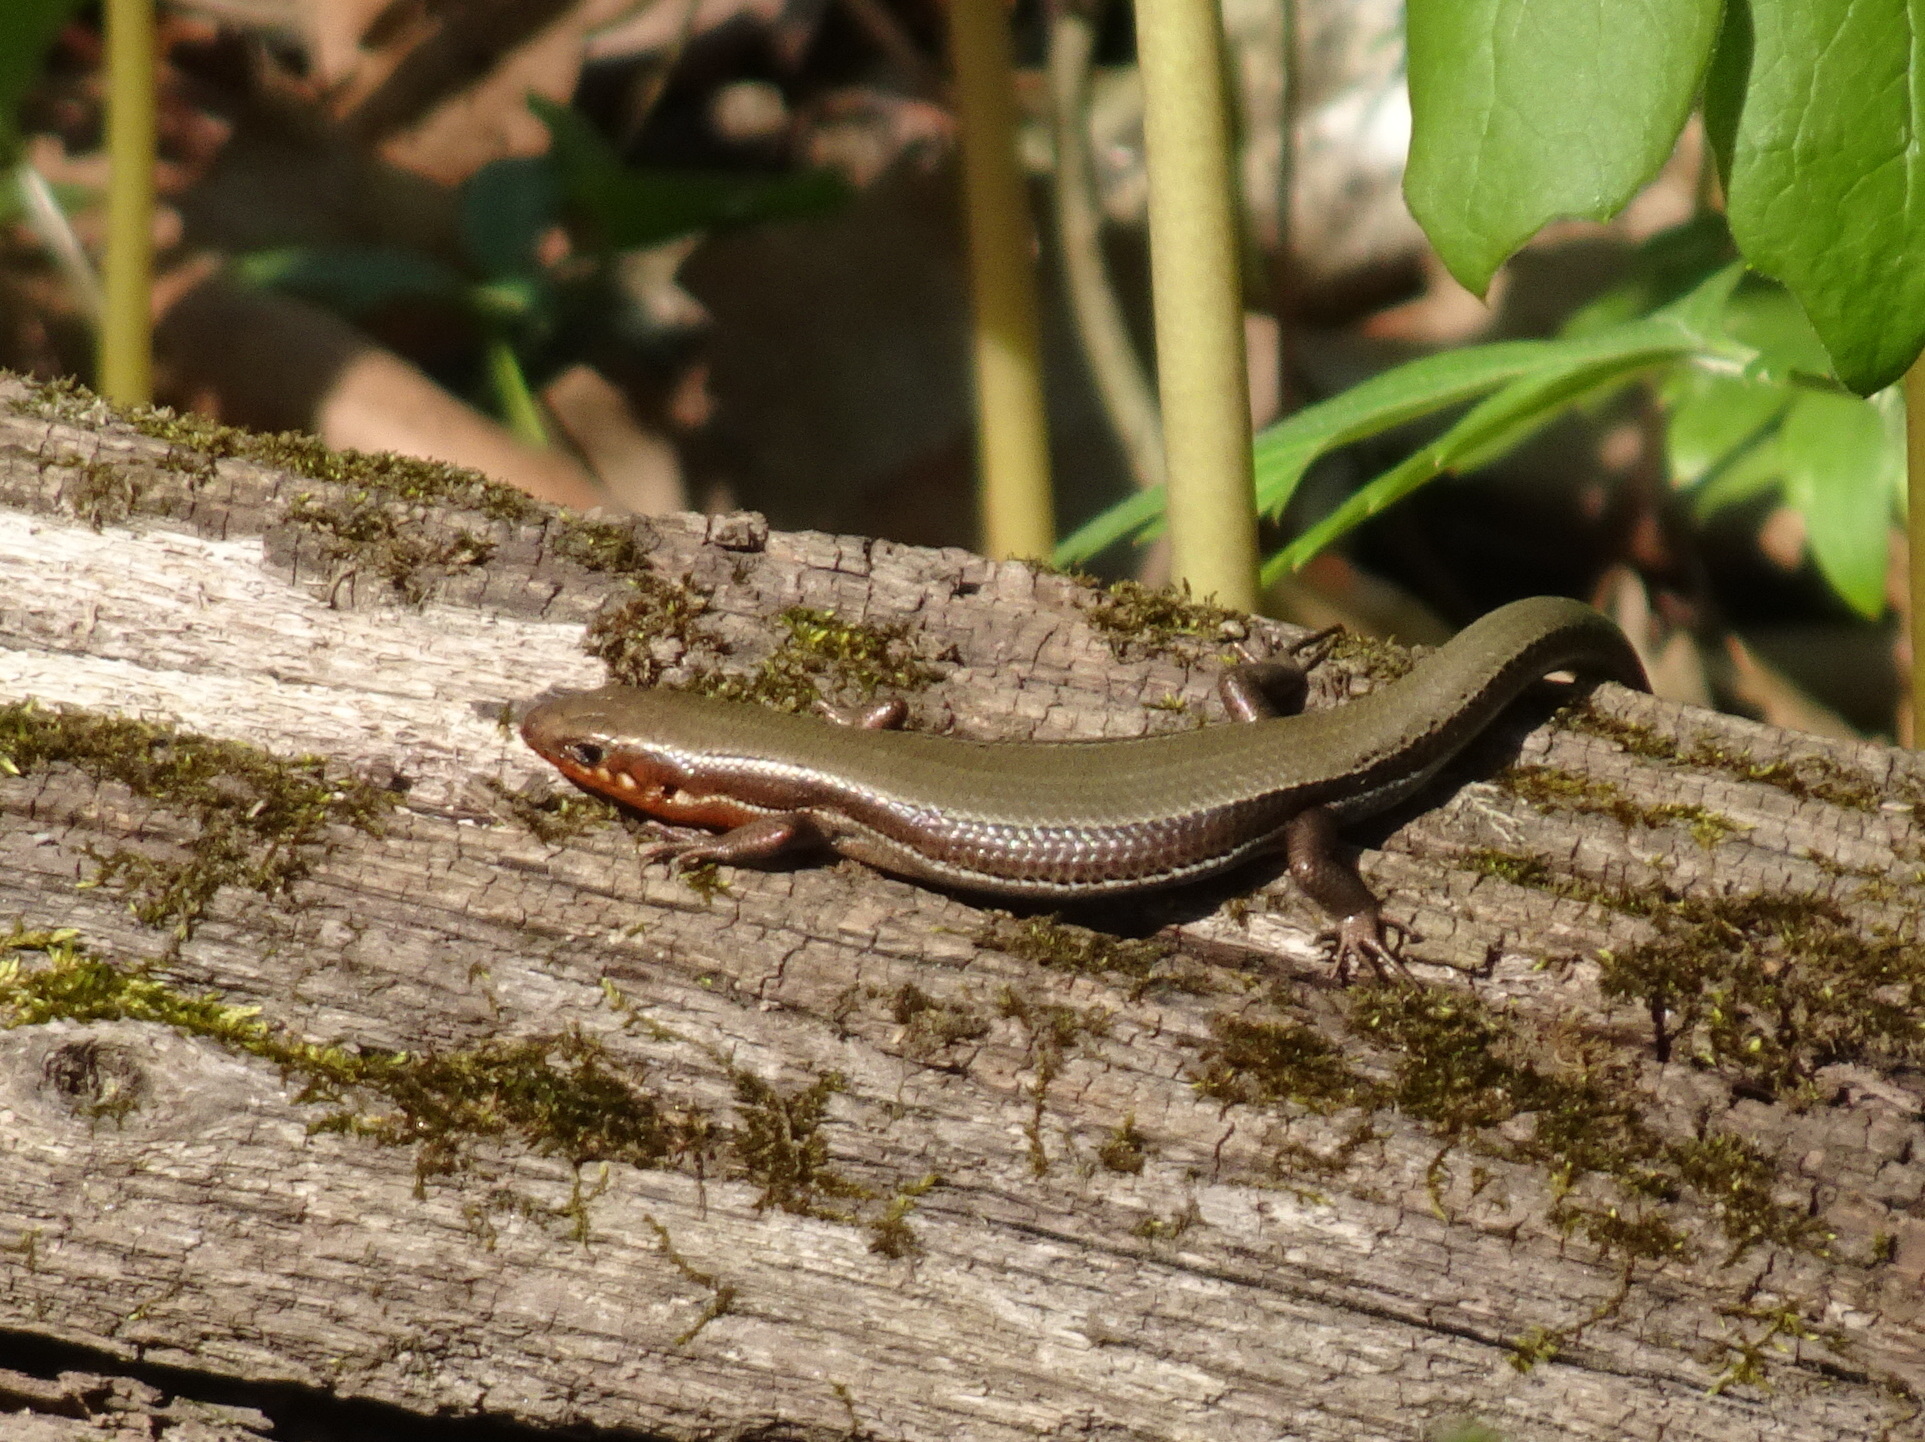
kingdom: Animalia
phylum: Chordata
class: Squamata
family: Scincidae
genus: Plestiodon
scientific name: Plestiodon anthracinus
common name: Coal skink
